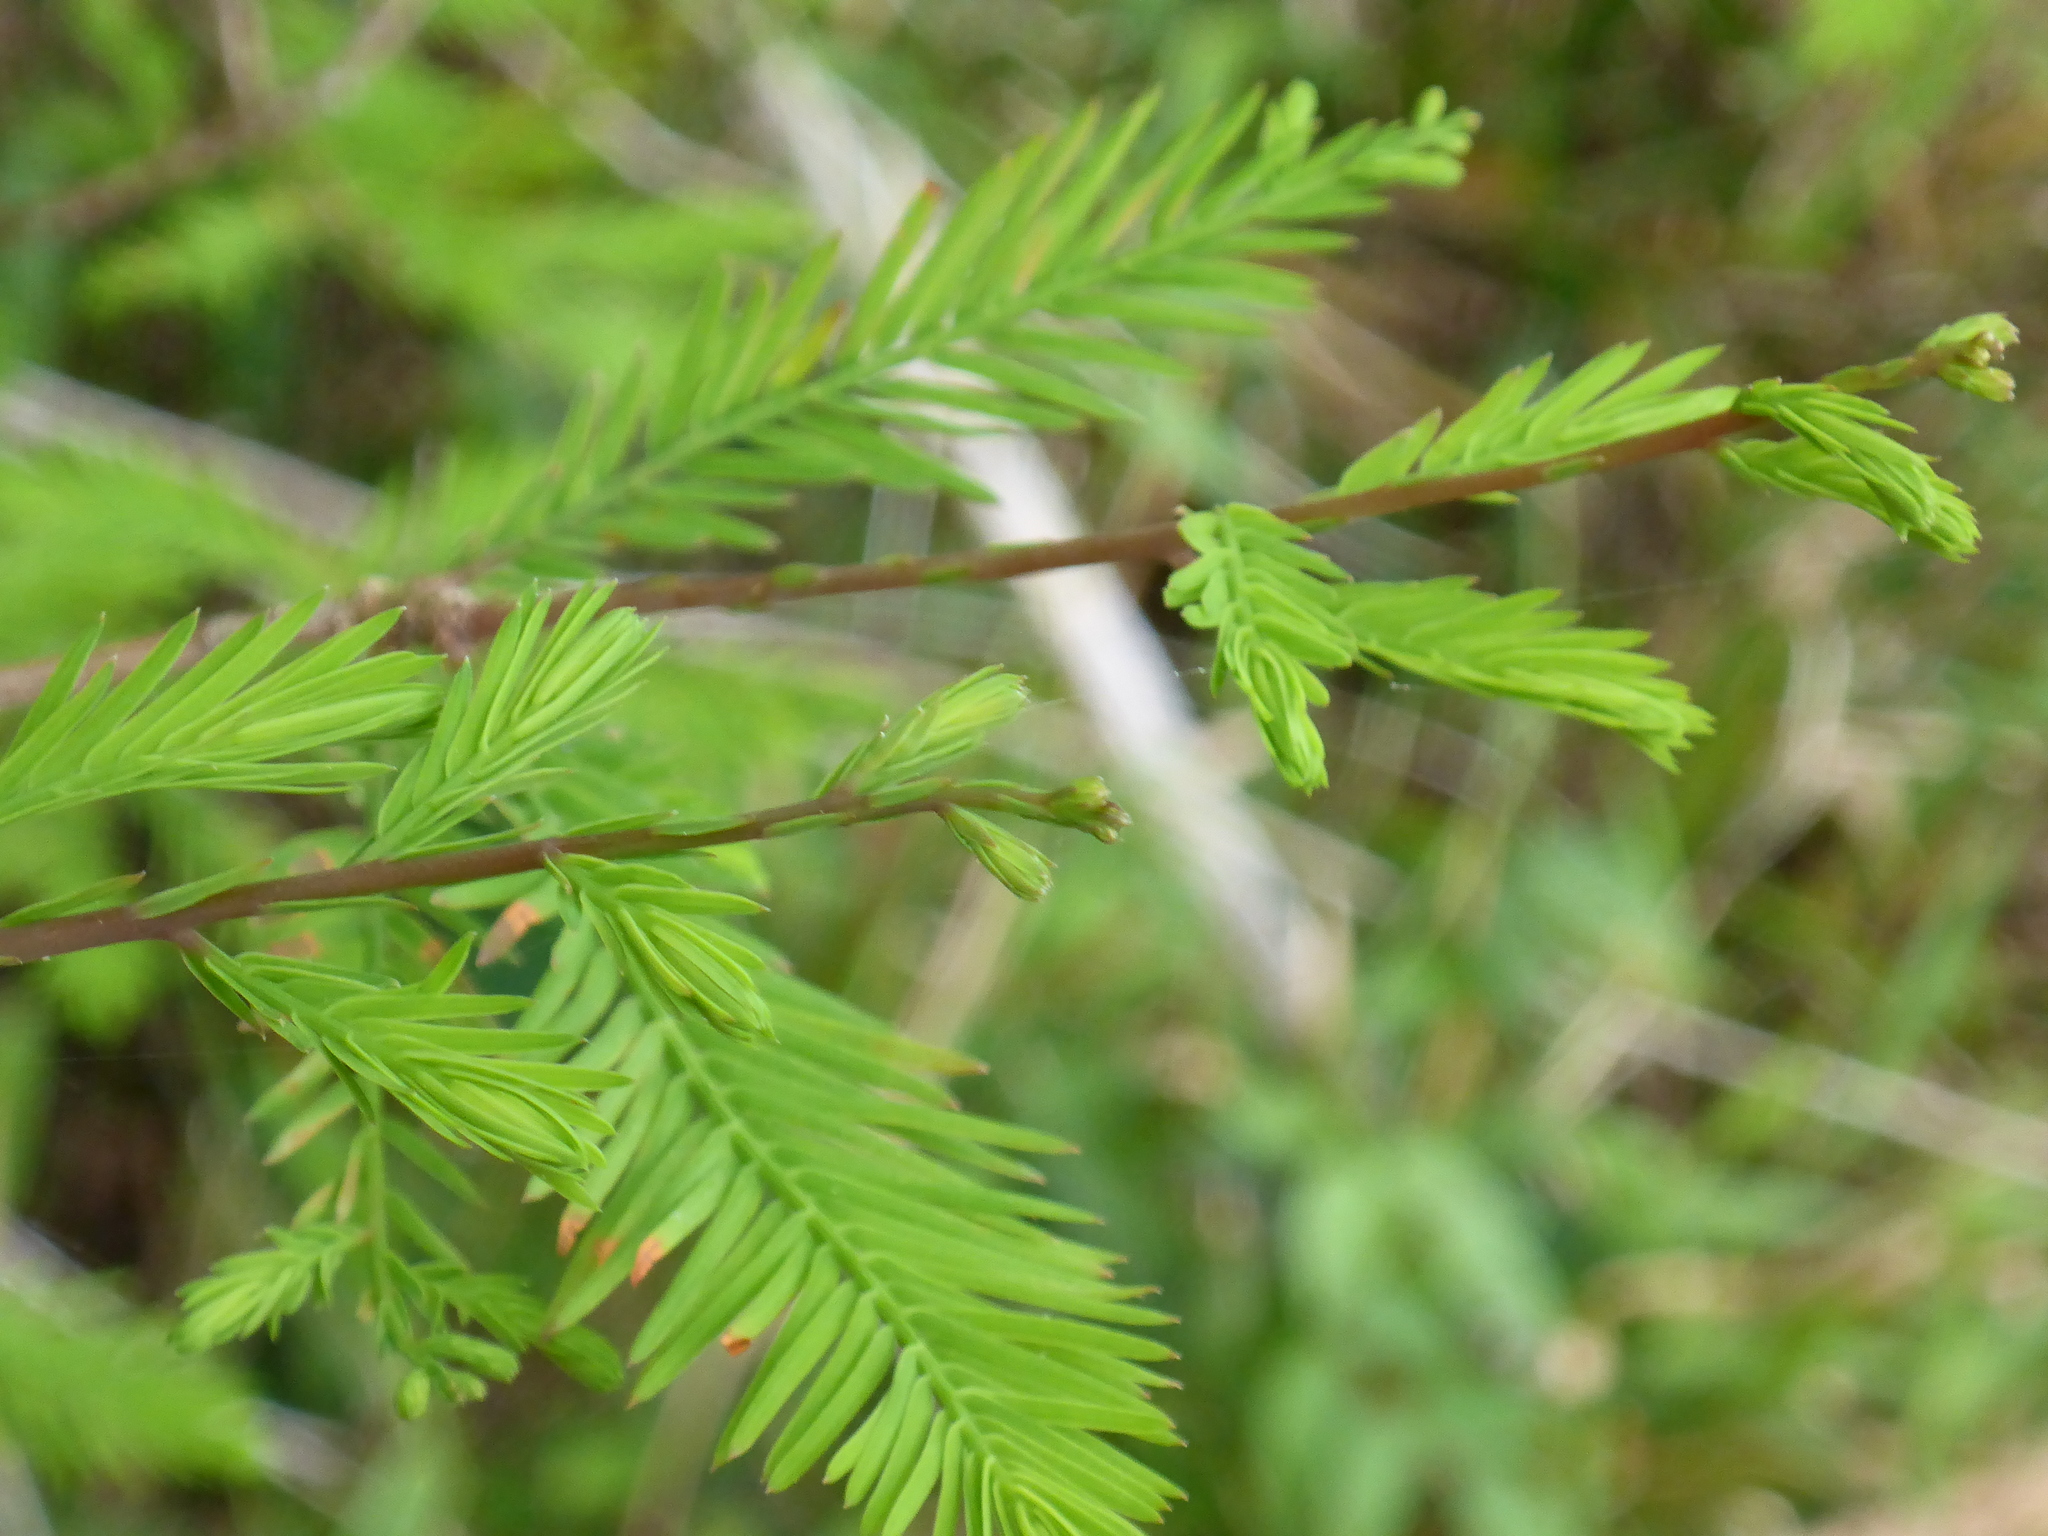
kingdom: Plantae
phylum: Tracheophyta
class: Pinopsida
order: Pinales
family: Cupressaceae
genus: Taxodium
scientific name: Taxodium distichum
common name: Bald cypress
